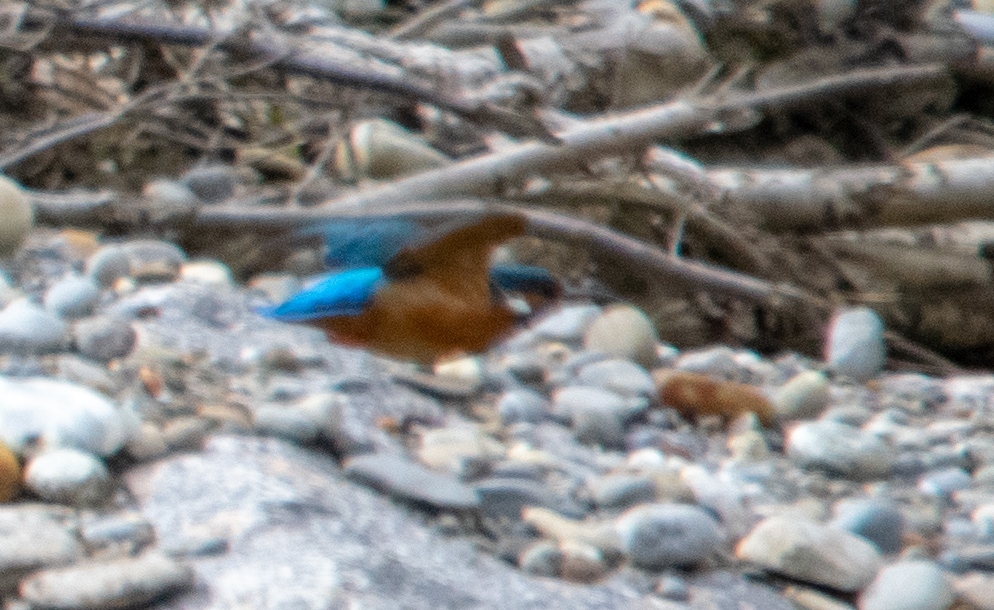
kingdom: Animalia
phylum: Chordata
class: Aves
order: Coraciiformes
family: Alcedinidae
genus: Alcedo
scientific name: Alcedo atthis
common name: Common kingfisher
